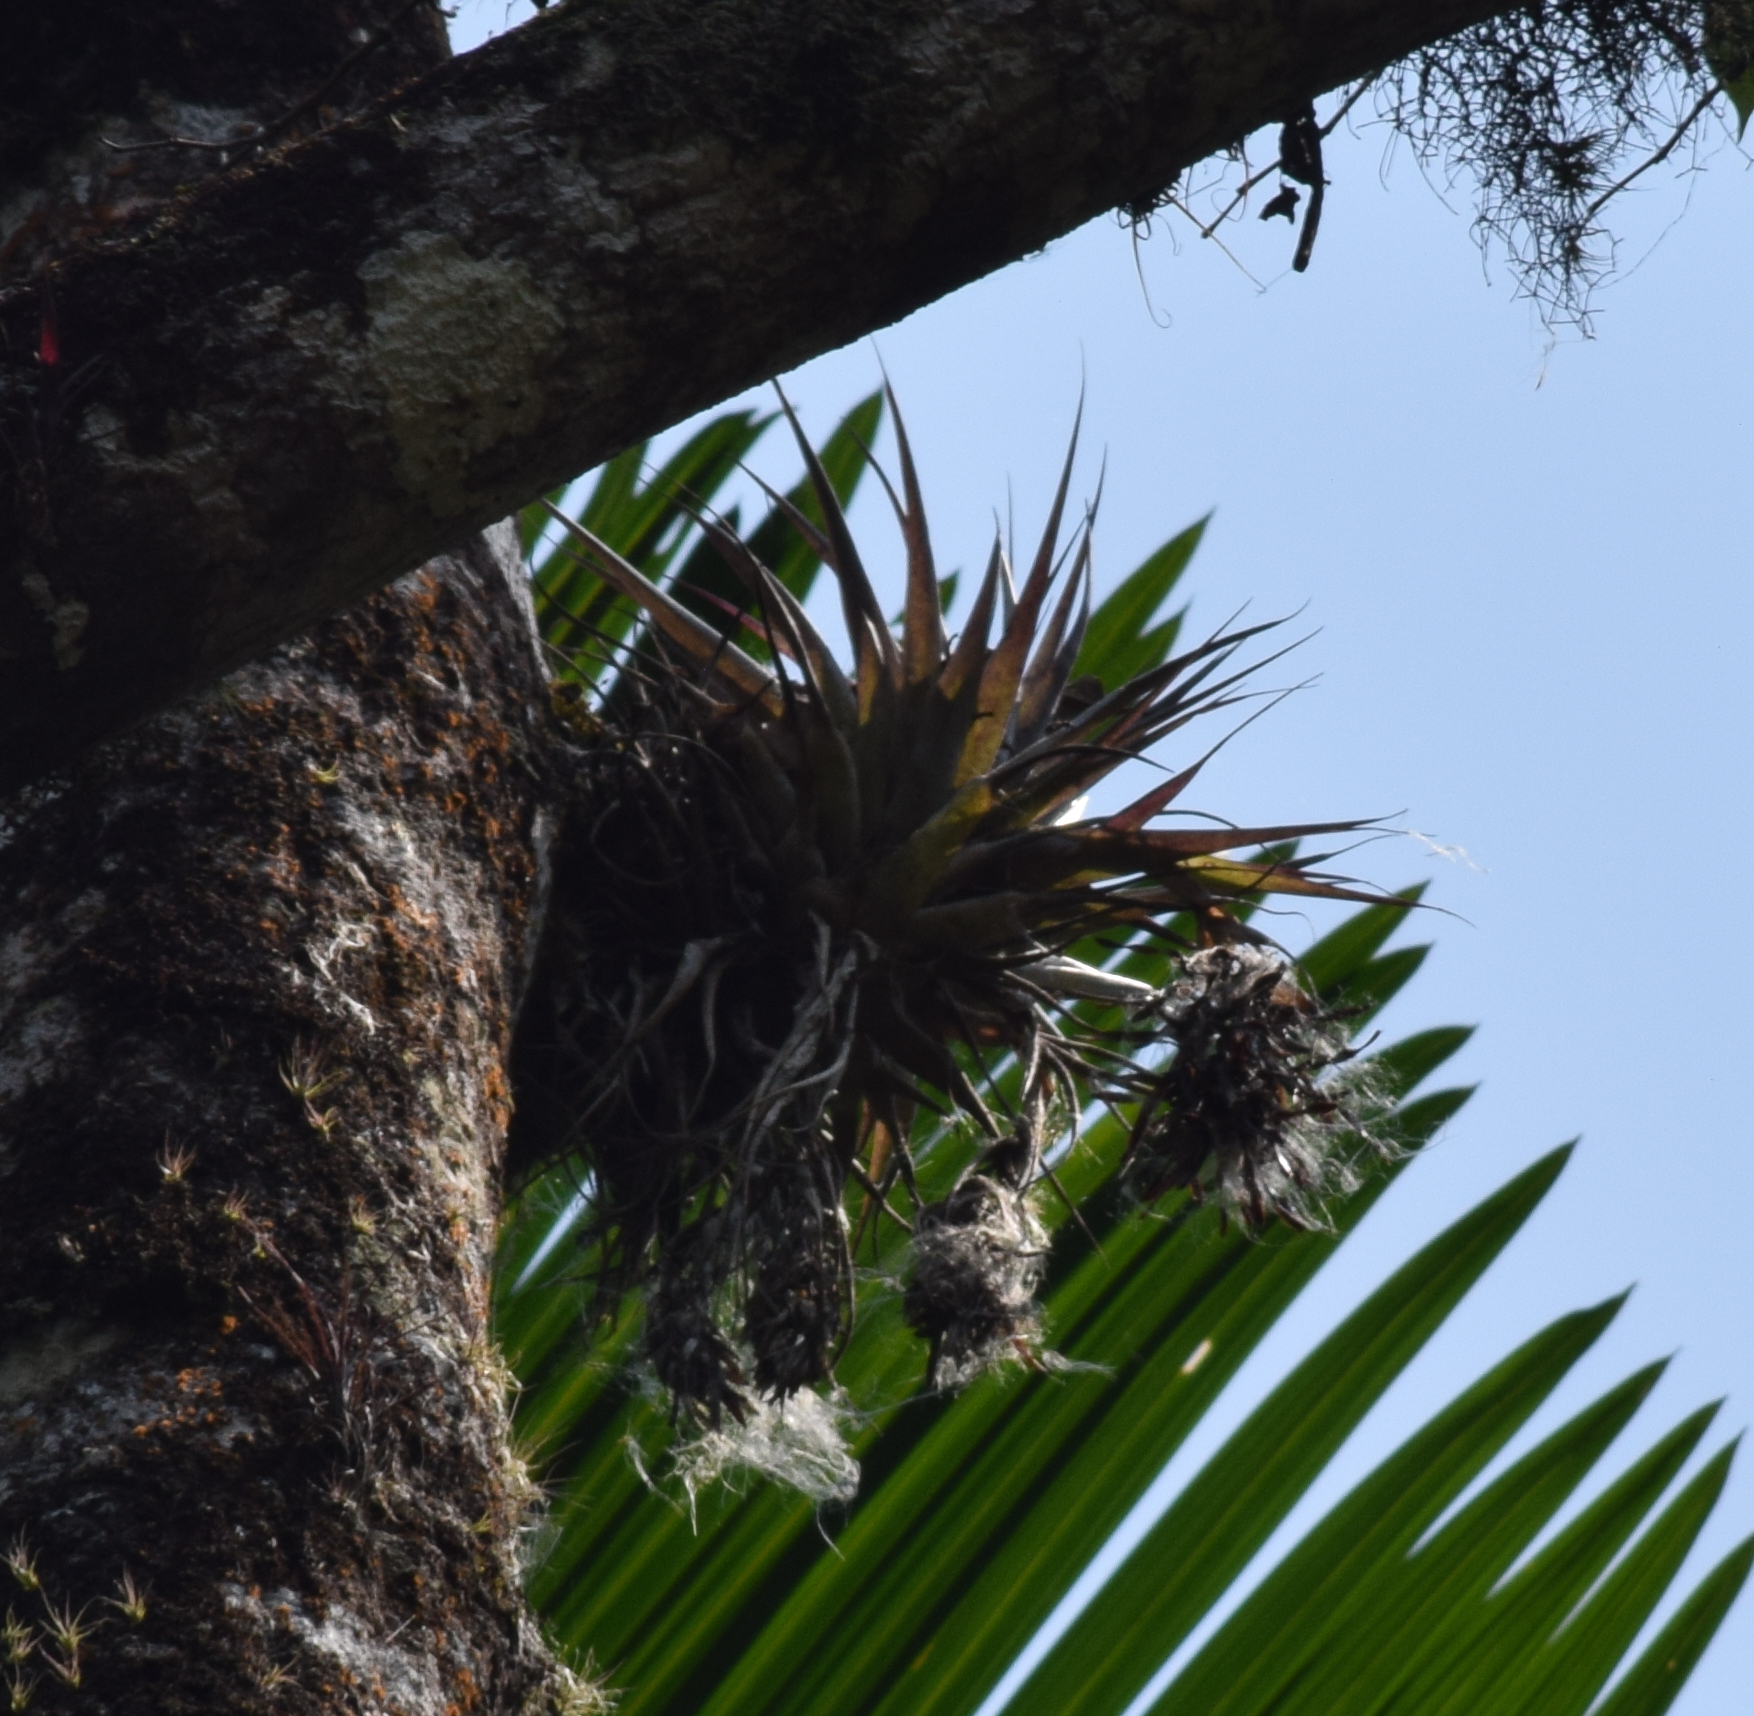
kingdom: Plantae
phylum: Tracheophyta
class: Liliopsida
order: Poales
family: Bromeliaceae
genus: Tillandsia
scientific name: Tillandsia geminiflora
